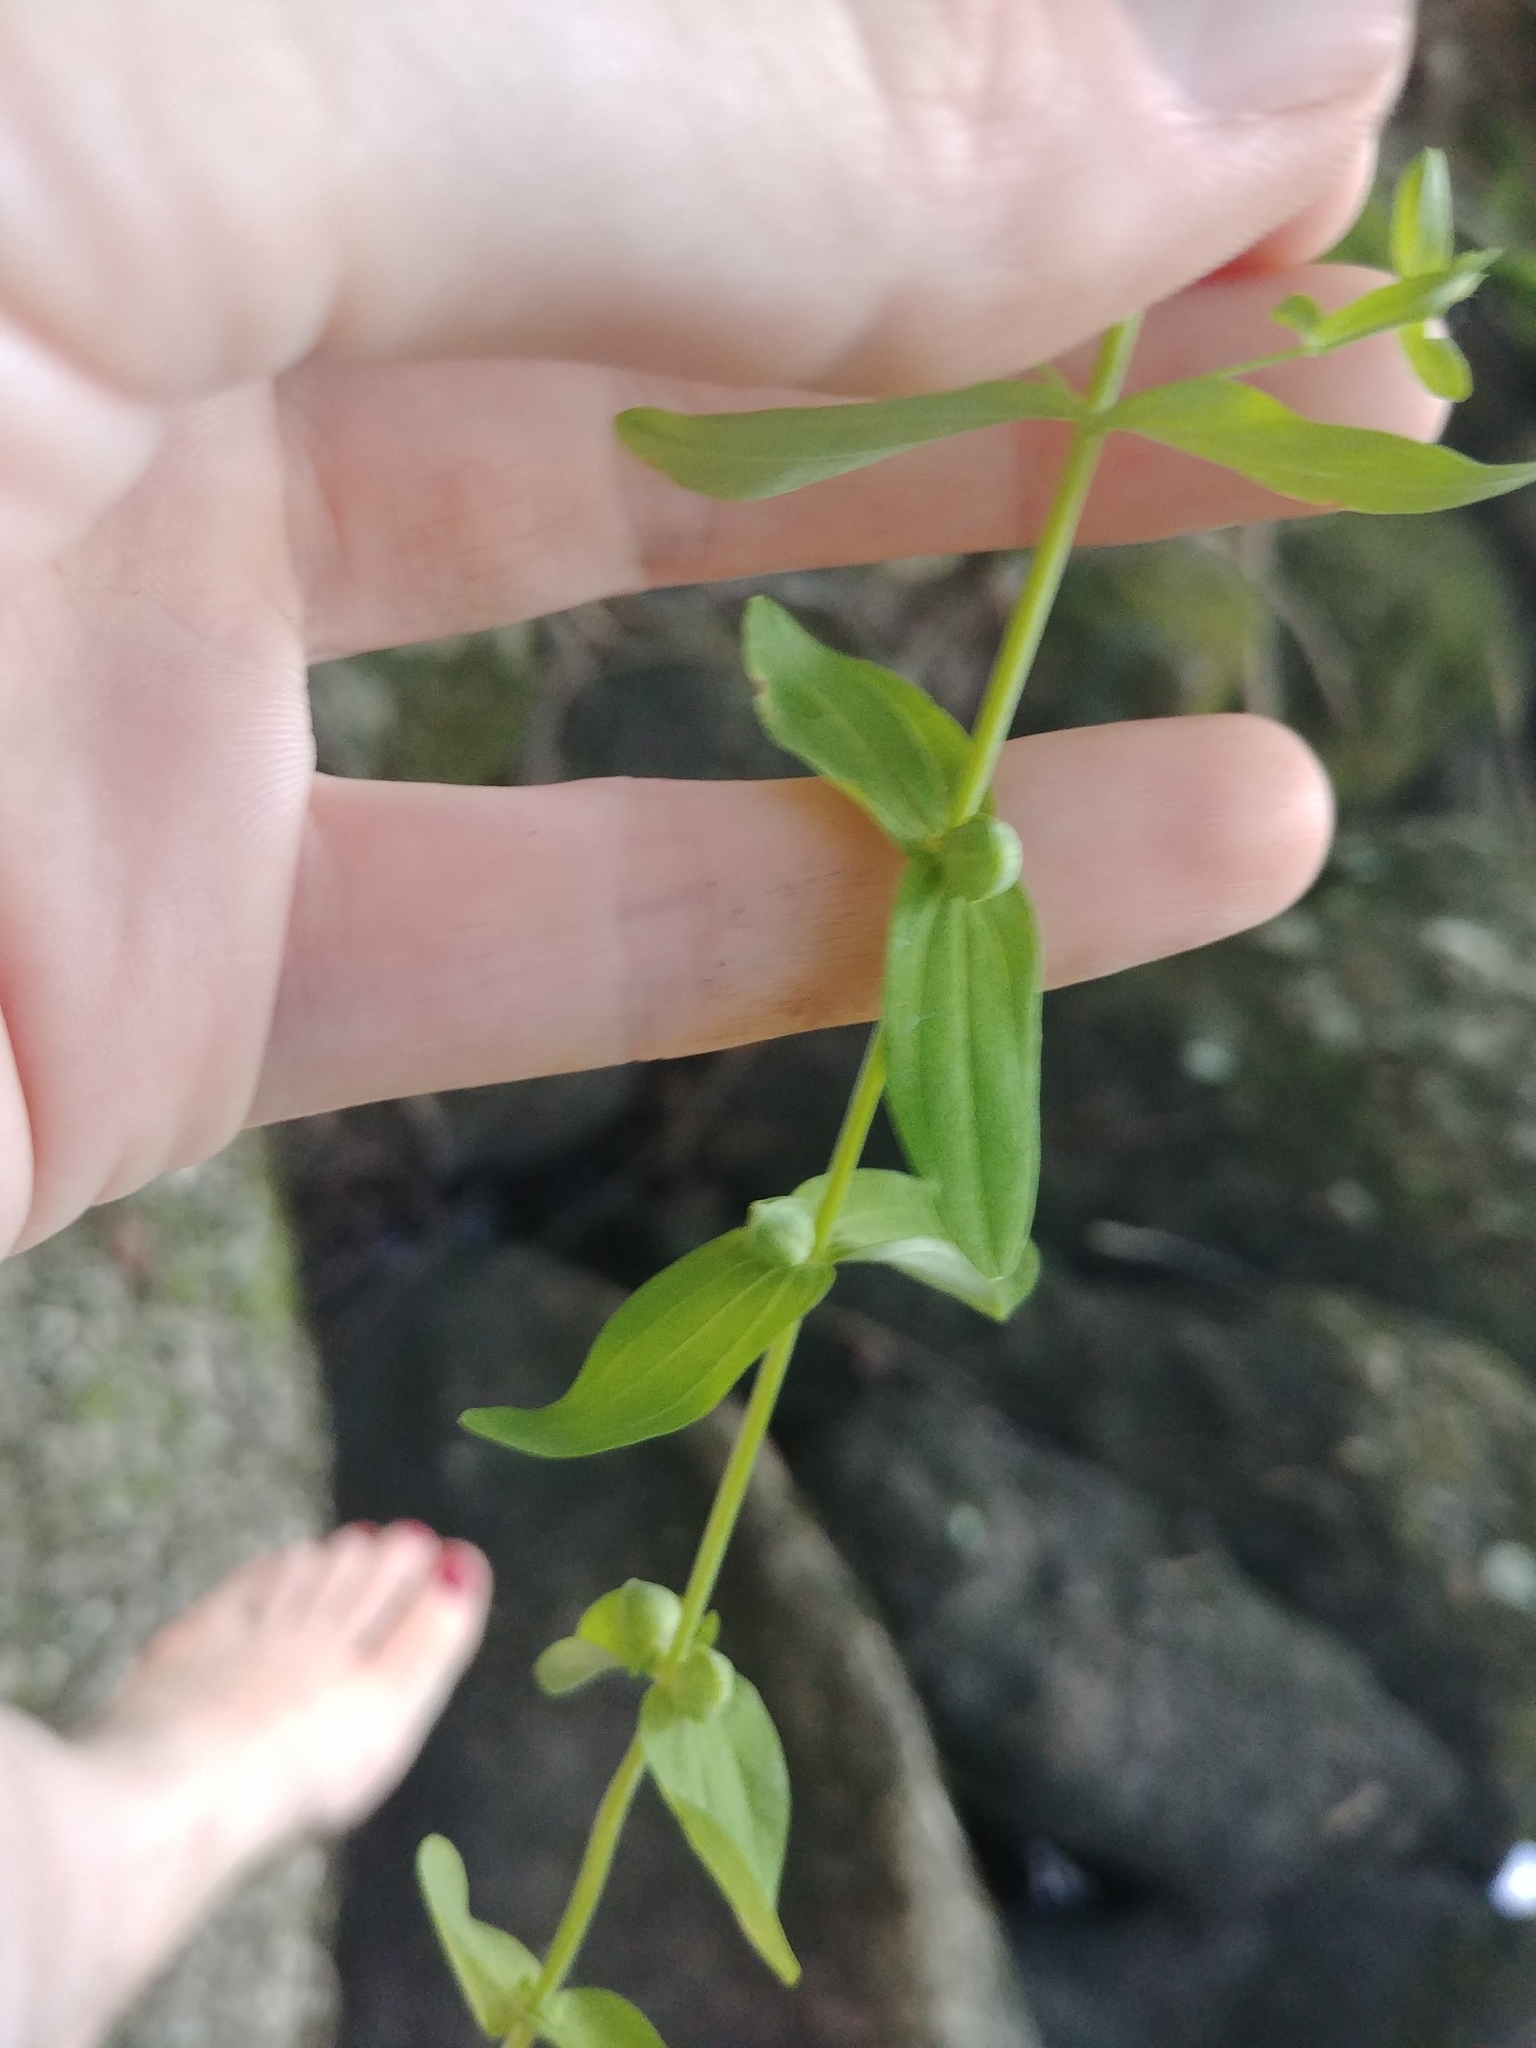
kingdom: Plantae
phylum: Tracheophyta
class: Magnoliopsida
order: Malpighiales
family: Hypericaceae
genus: Hypericum
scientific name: Hypericum mutilum
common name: Dwarf st. john's-wort
